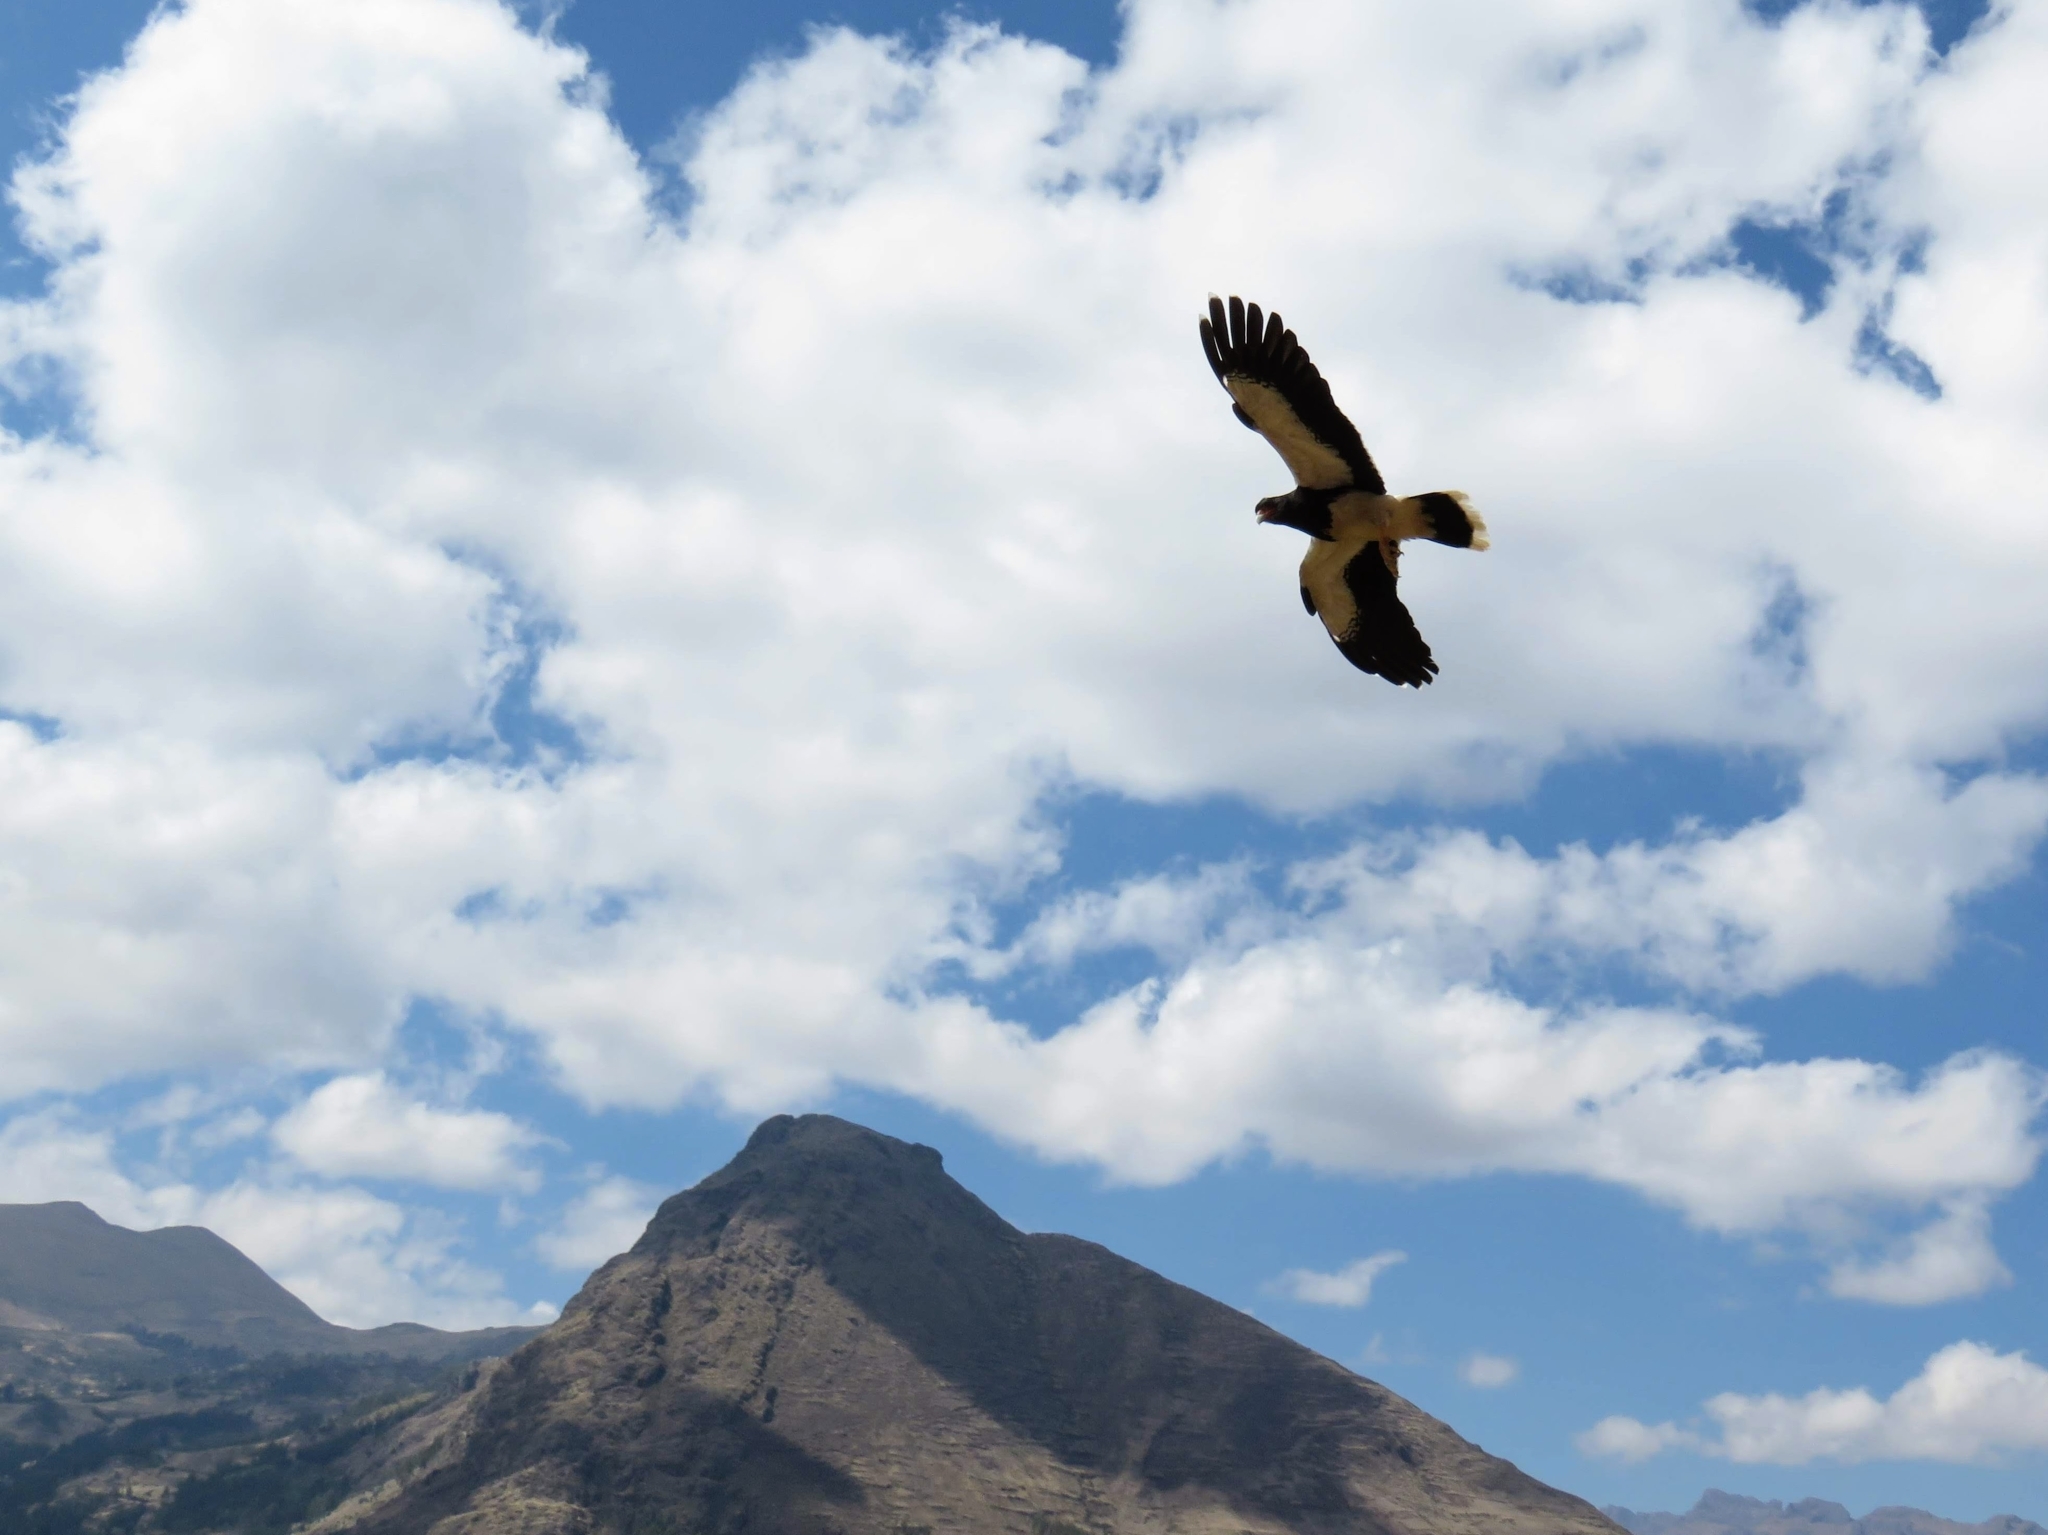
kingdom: Animalia
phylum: Chordata
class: Aves
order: Falconiformes
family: Falconidae
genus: Daptrius
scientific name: Daptrius
